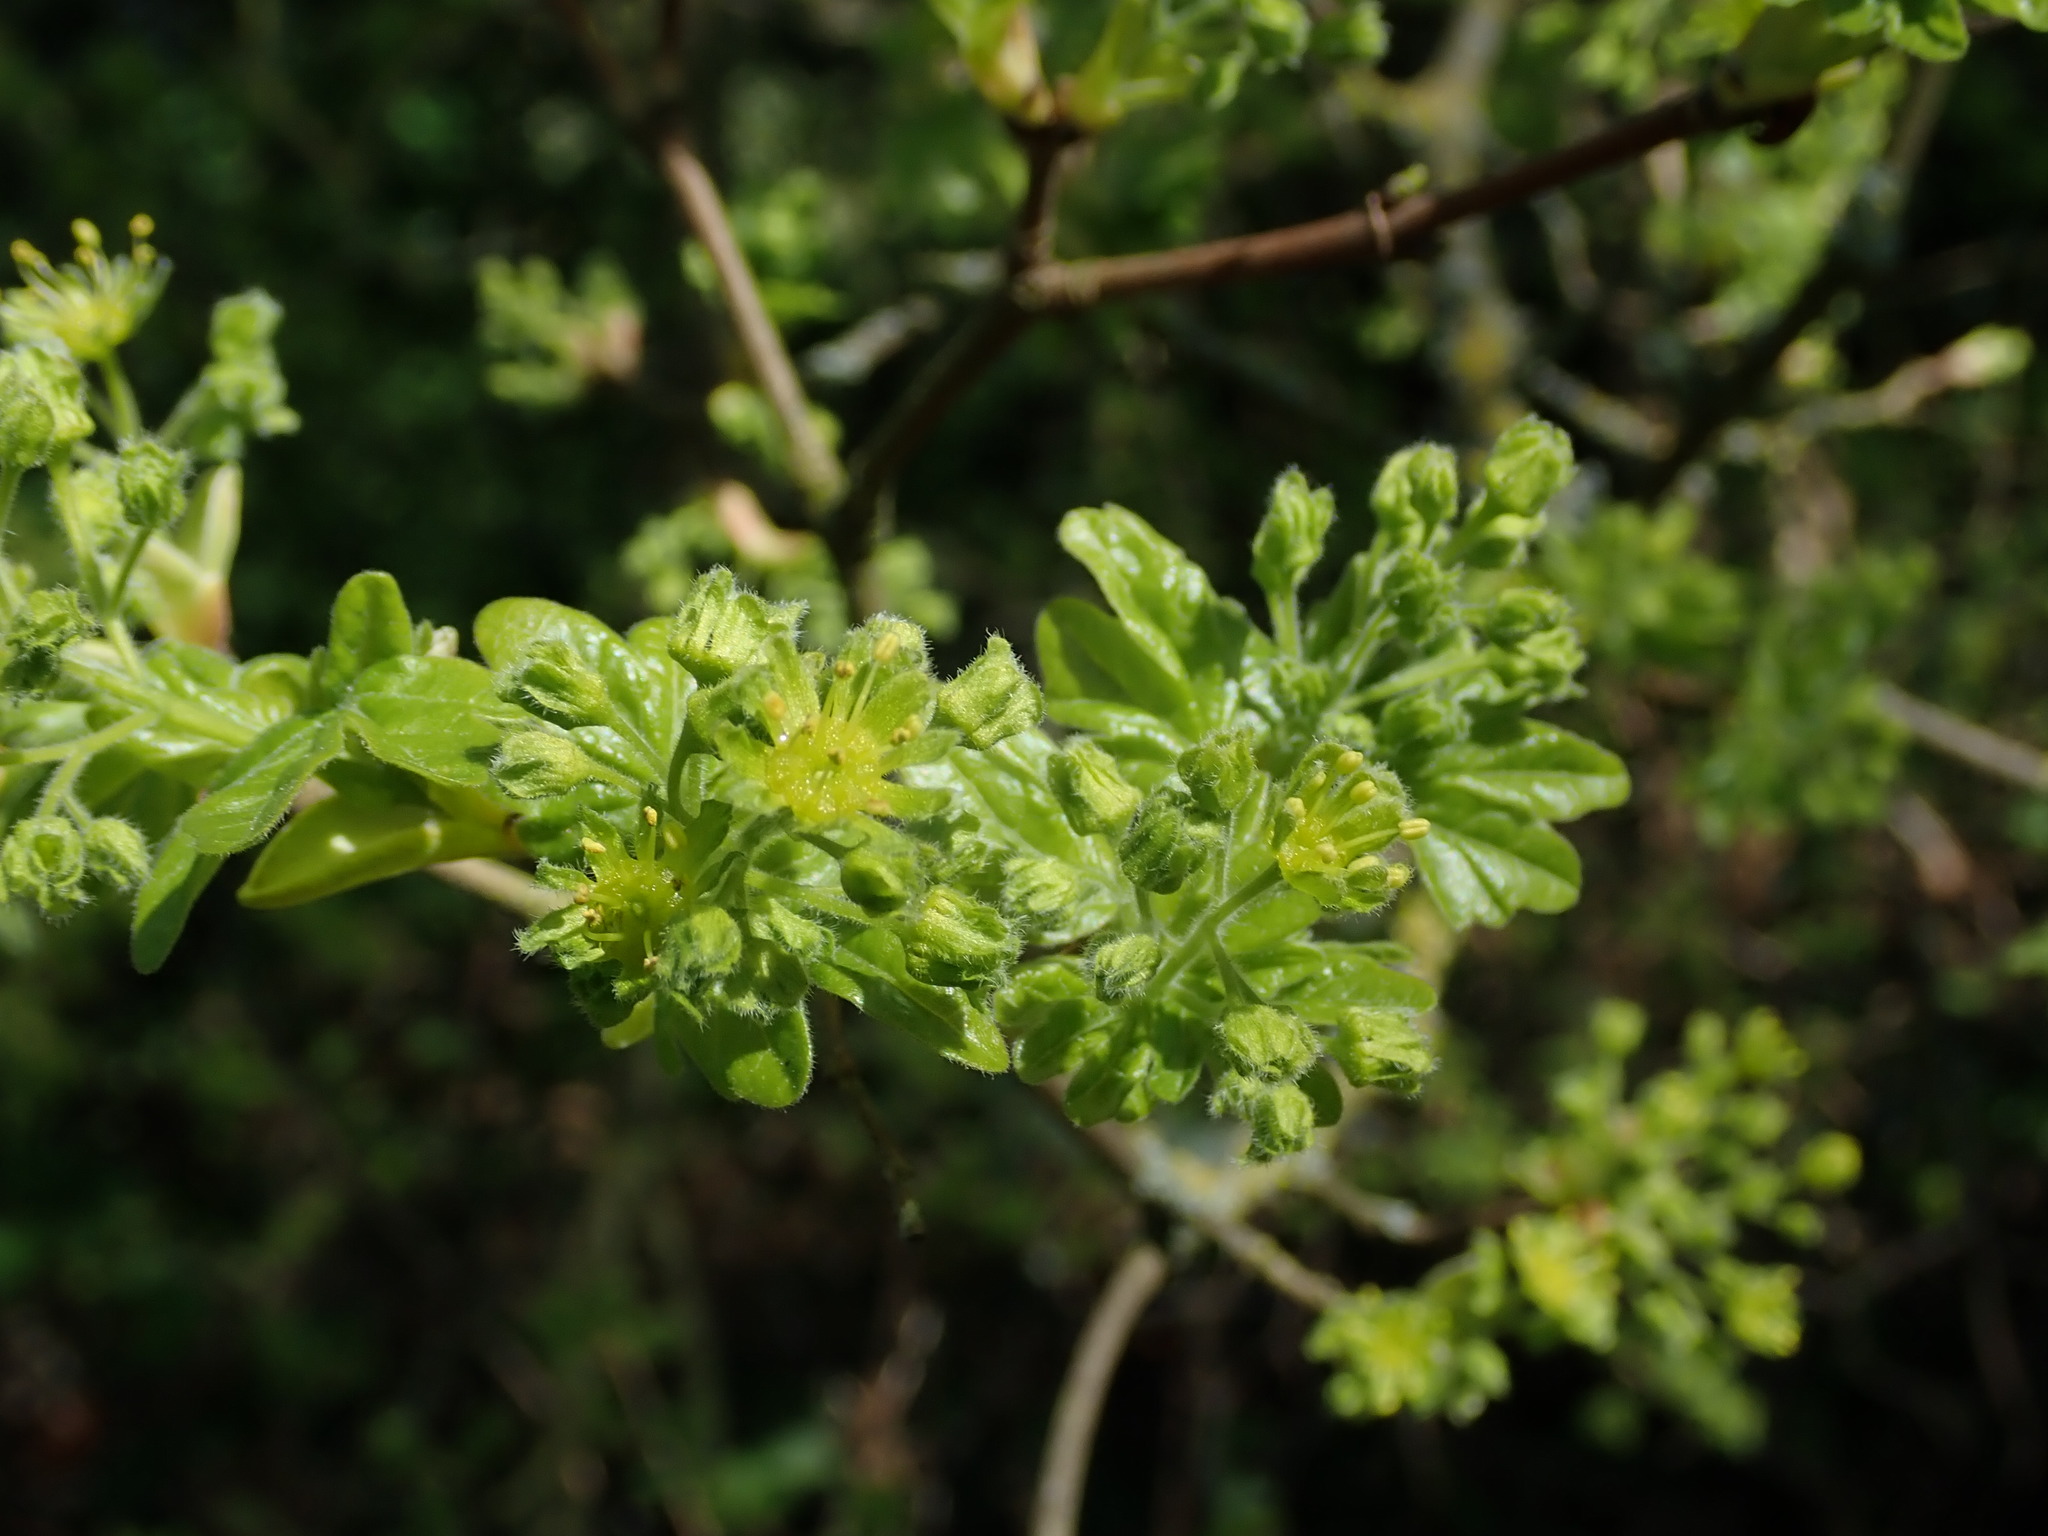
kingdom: Plantae
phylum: Tracheophyta
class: Magnoliopsida
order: Sapindales
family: Sapindaceae
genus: Acer
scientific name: Acer campestre
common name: Field maple
